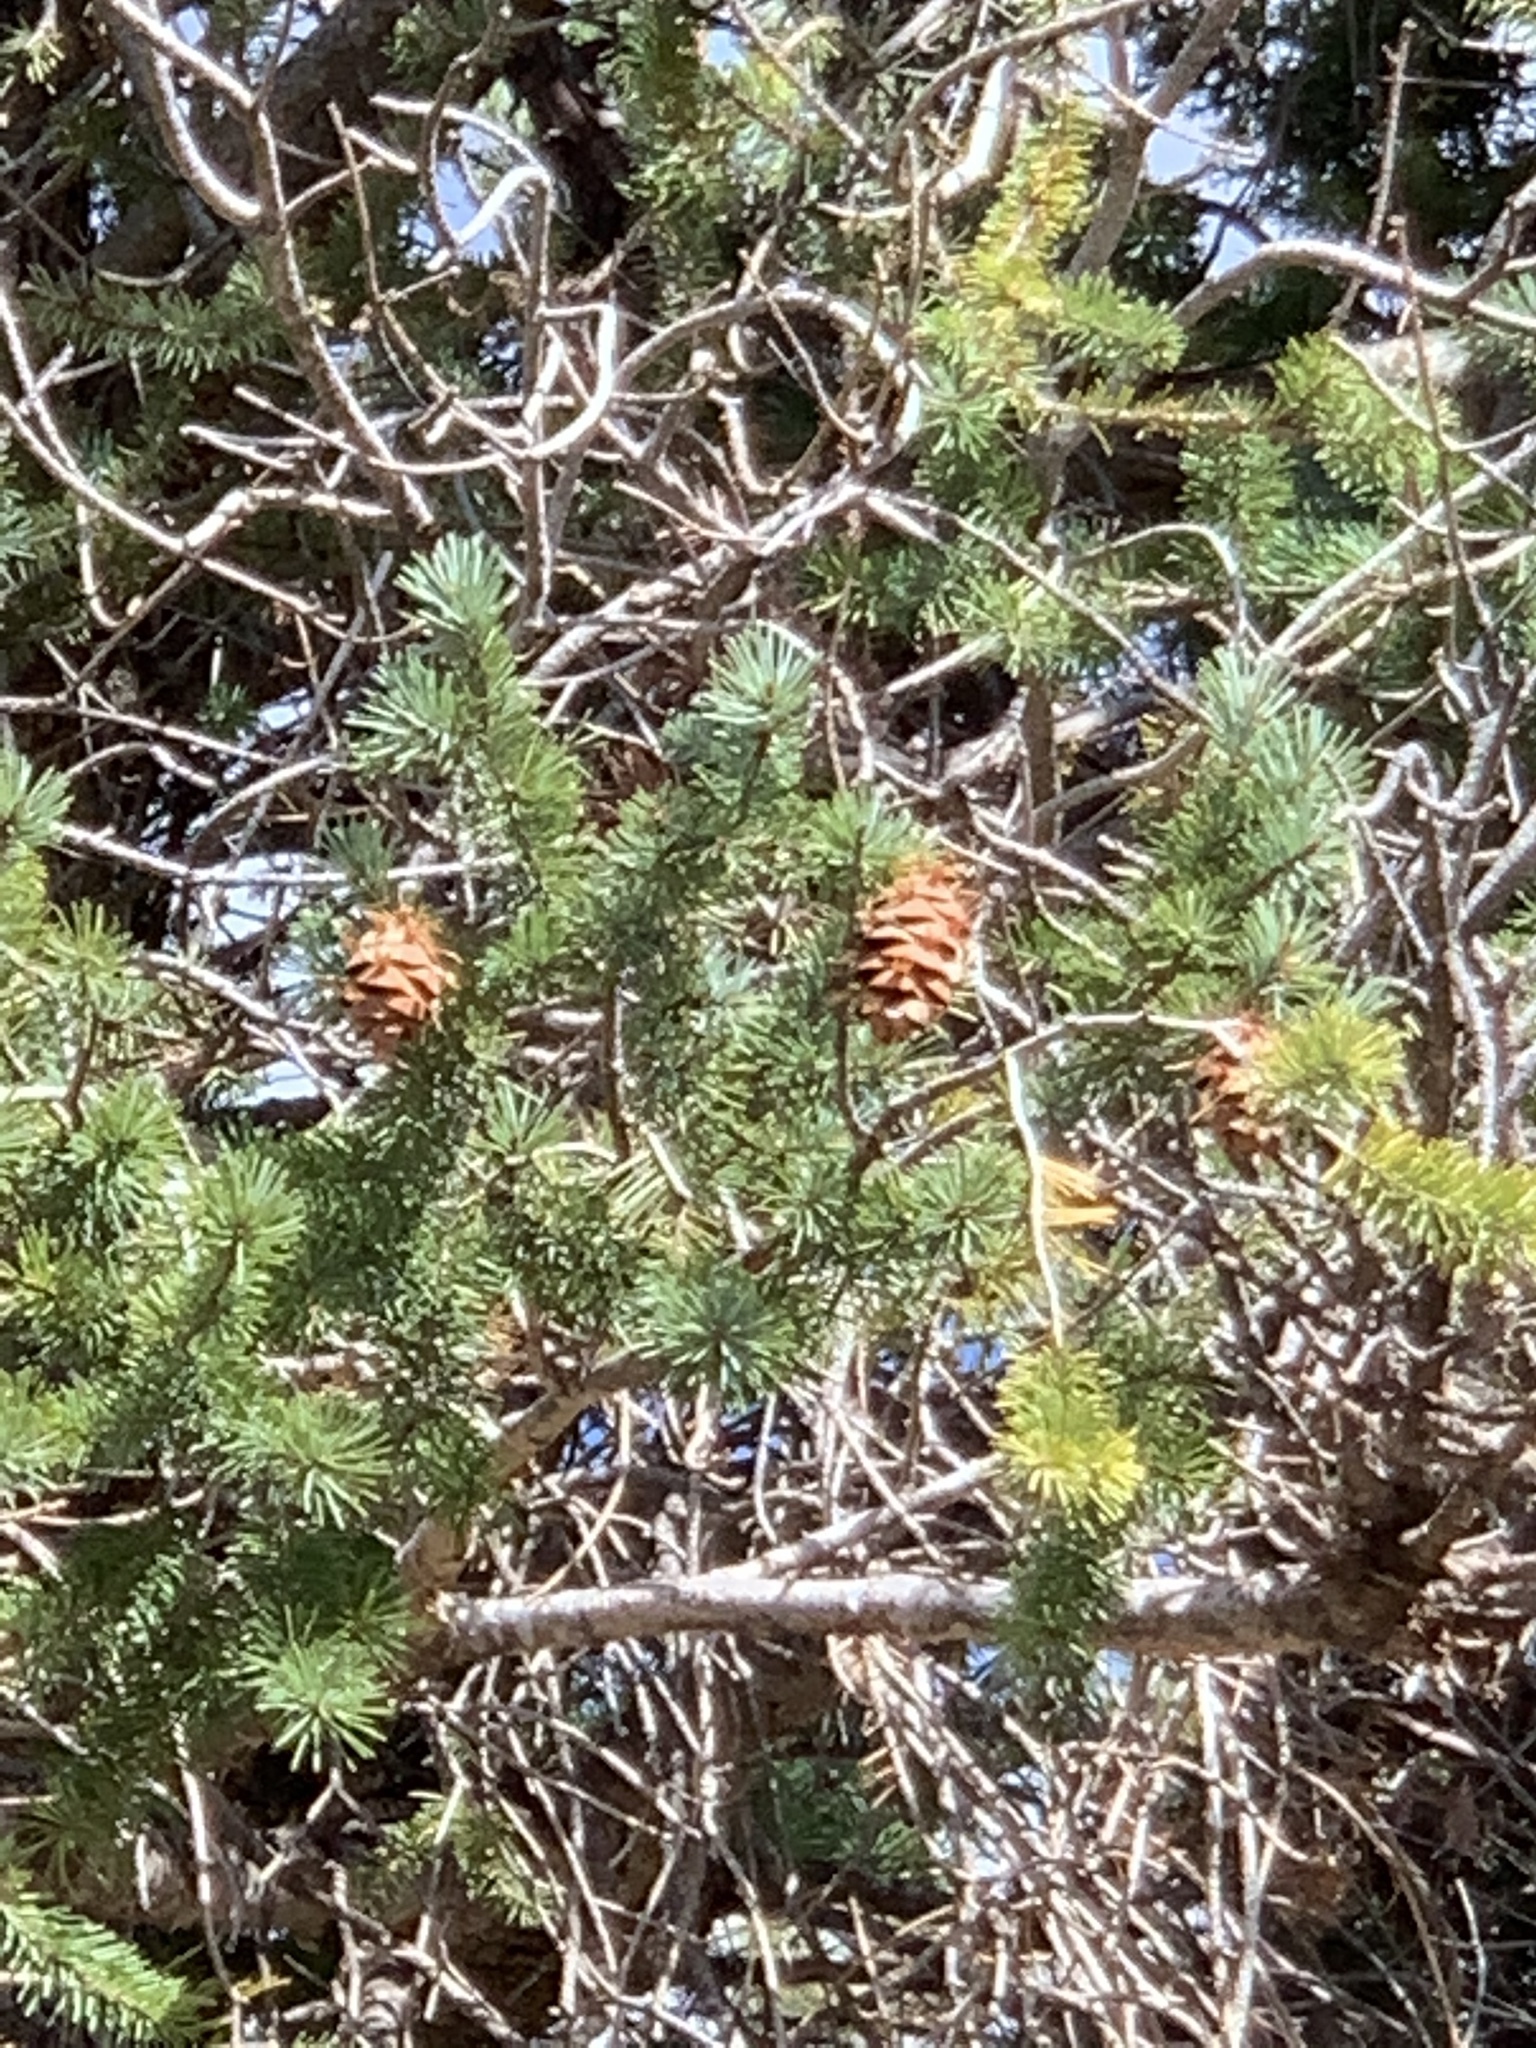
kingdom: Plantae
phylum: Tracheophyta
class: Pinopsida
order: Pinales
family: Pinaceae
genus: Pseudotsuga
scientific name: Pseudotsuga menziesii
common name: Douglas fir
